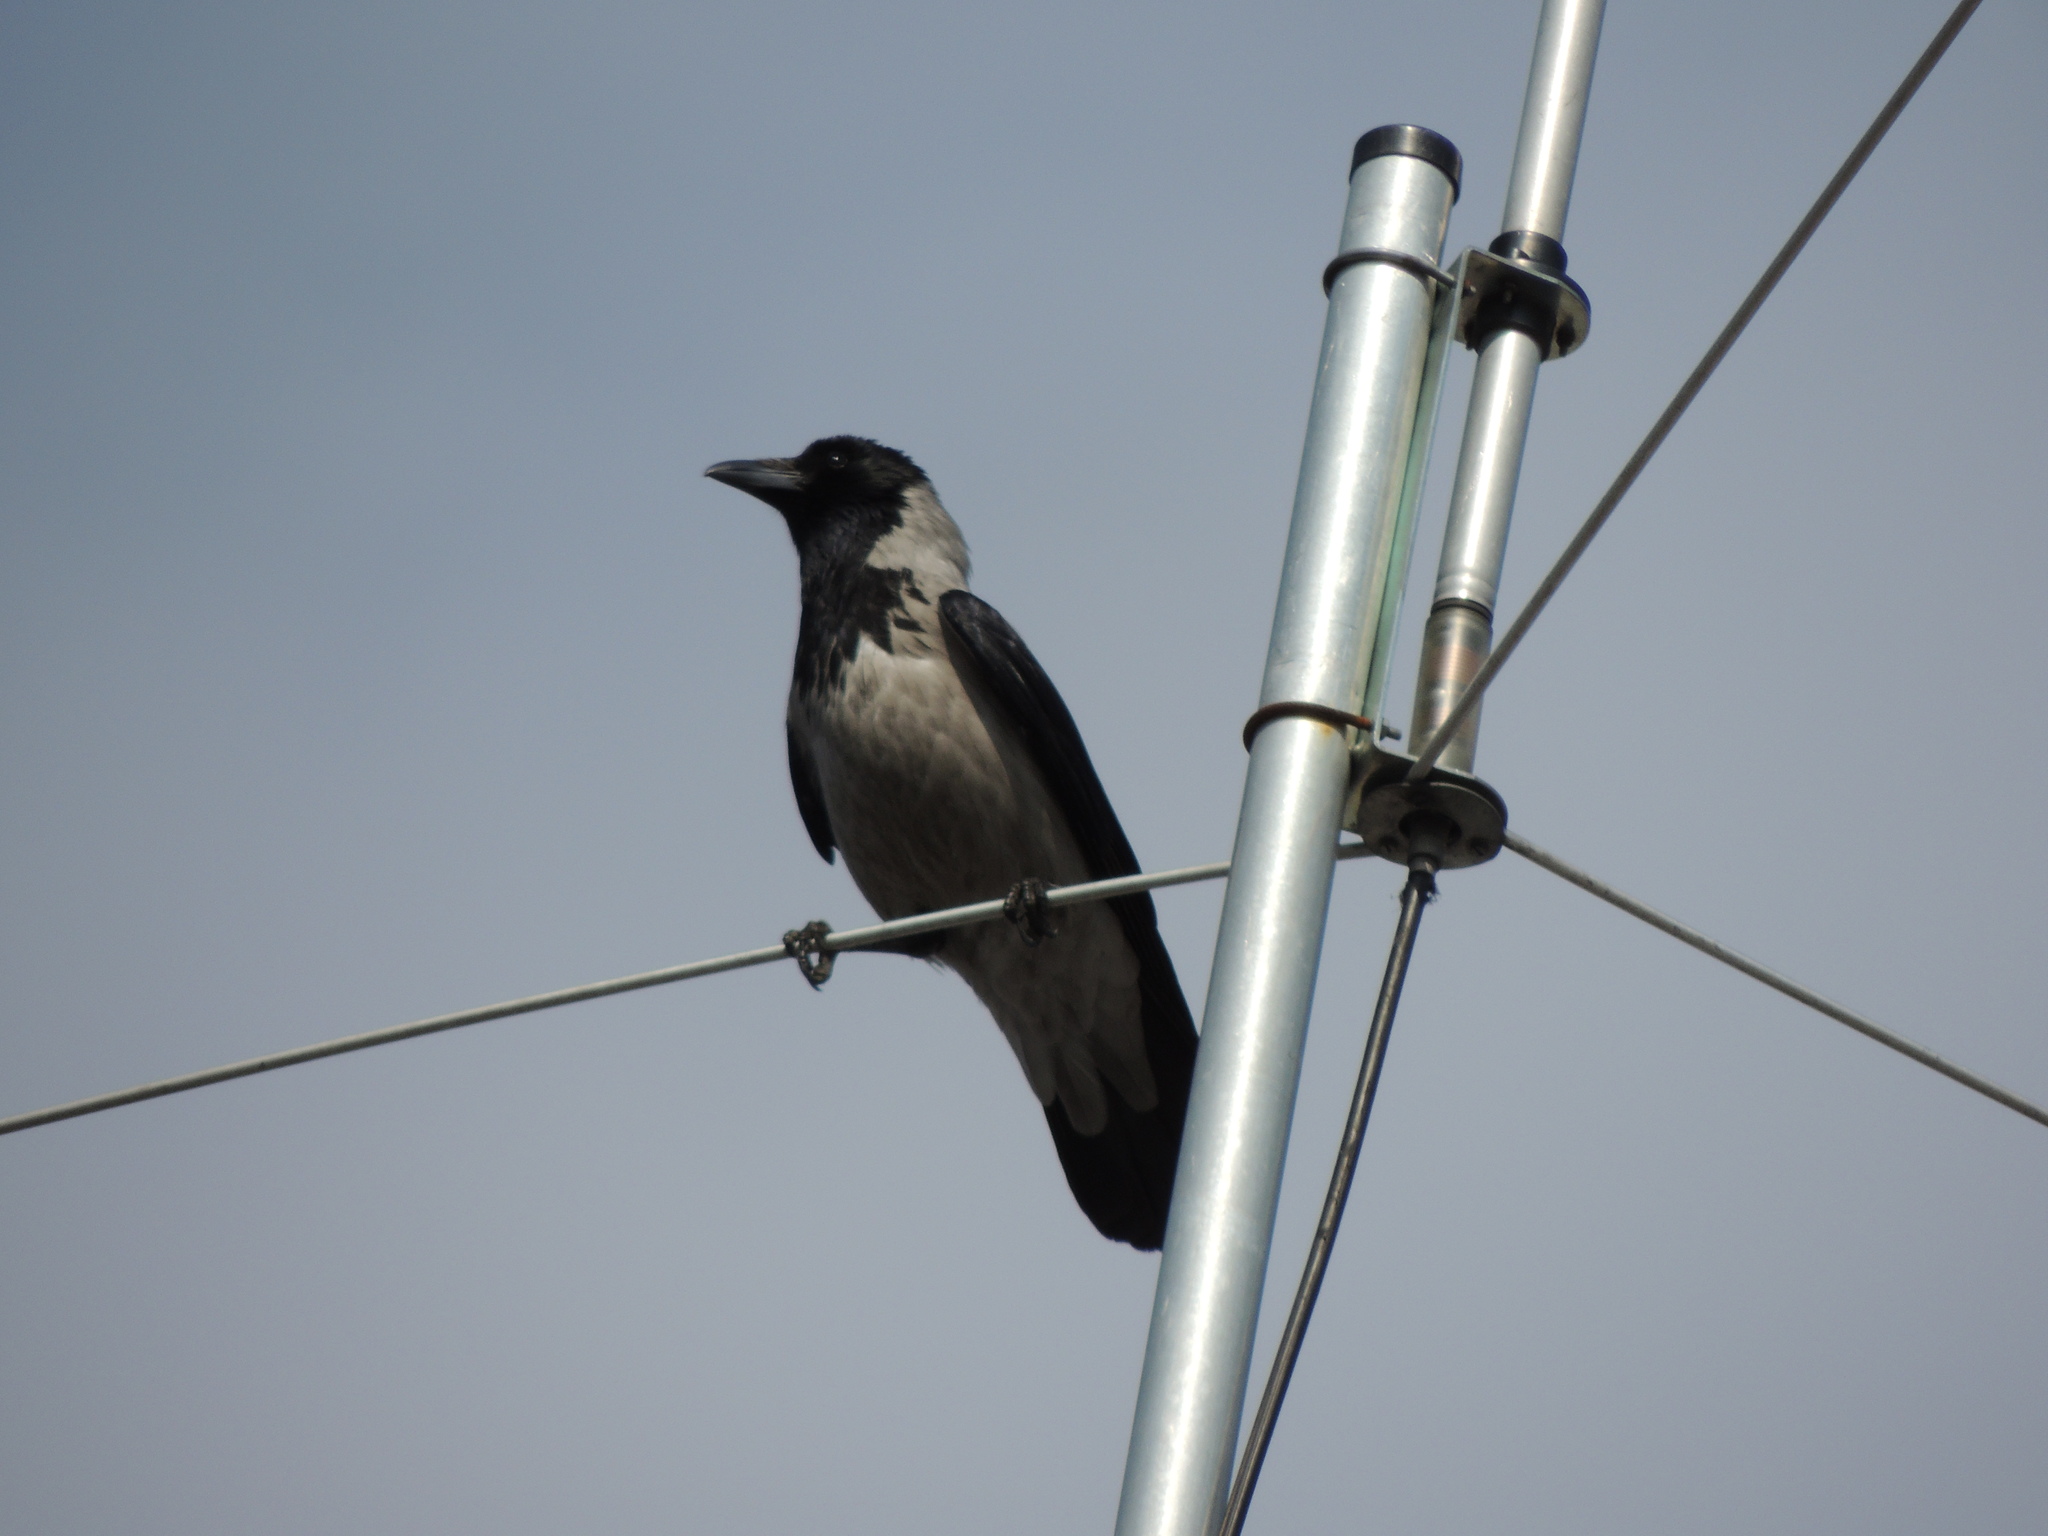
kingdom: Animalia
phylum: Chordata
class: Aves
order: Passeriformes
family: Corvidae
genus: Corvus
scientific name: Corvus cornix
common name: Hooded crow
